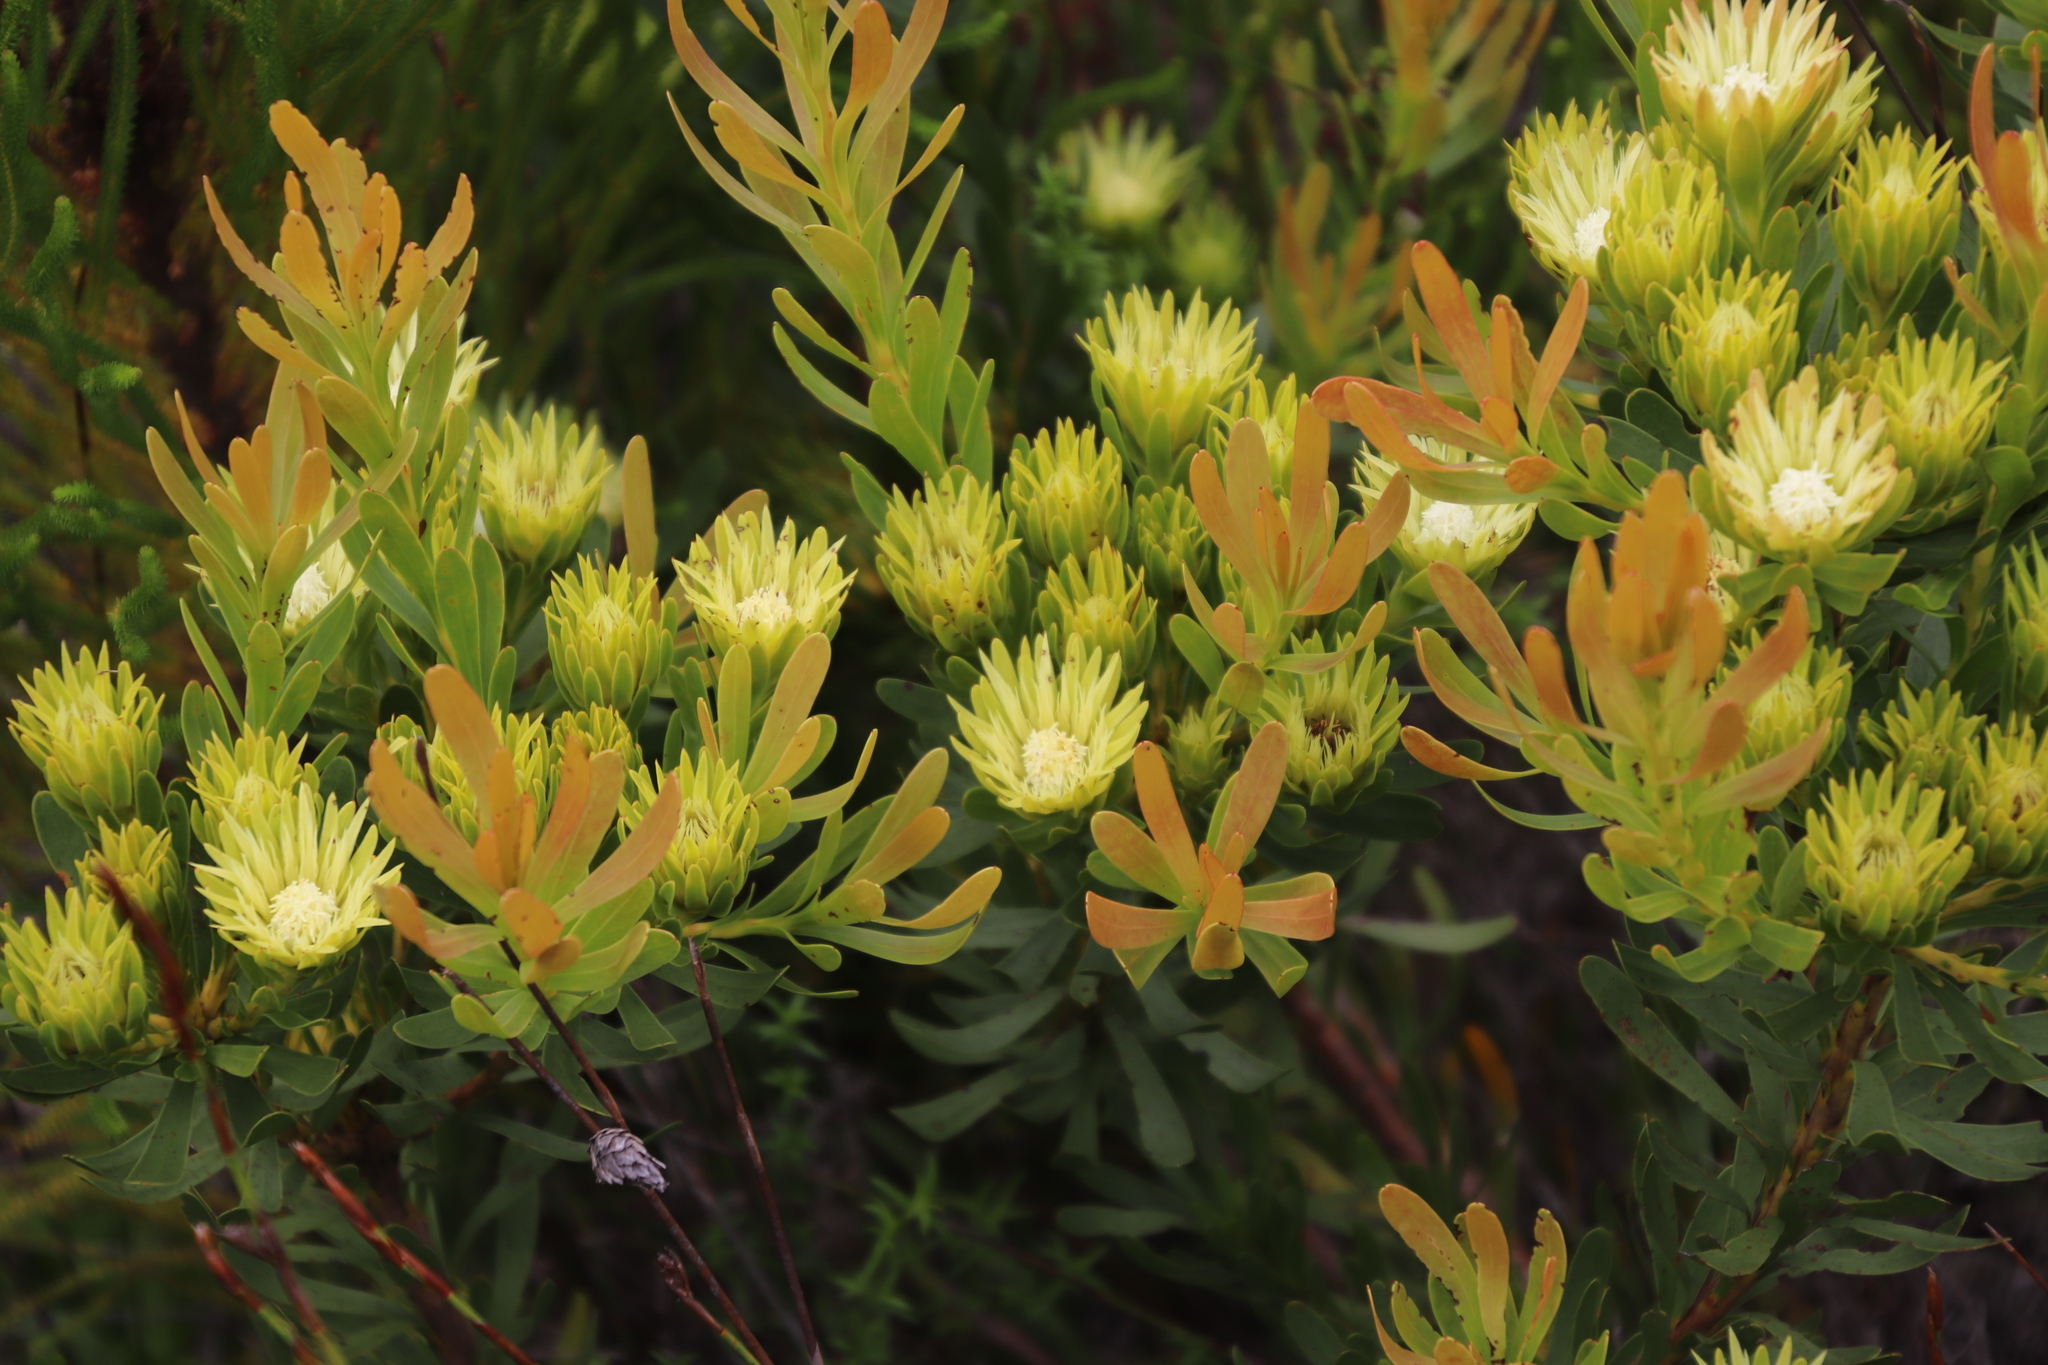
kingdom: Plantae
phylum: Tracheophyta
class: Magnoliopsida
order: Proteales
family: Proteaceae
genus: Aulax
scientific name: Aulax umbellata
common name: Broad-leaf featherbush
